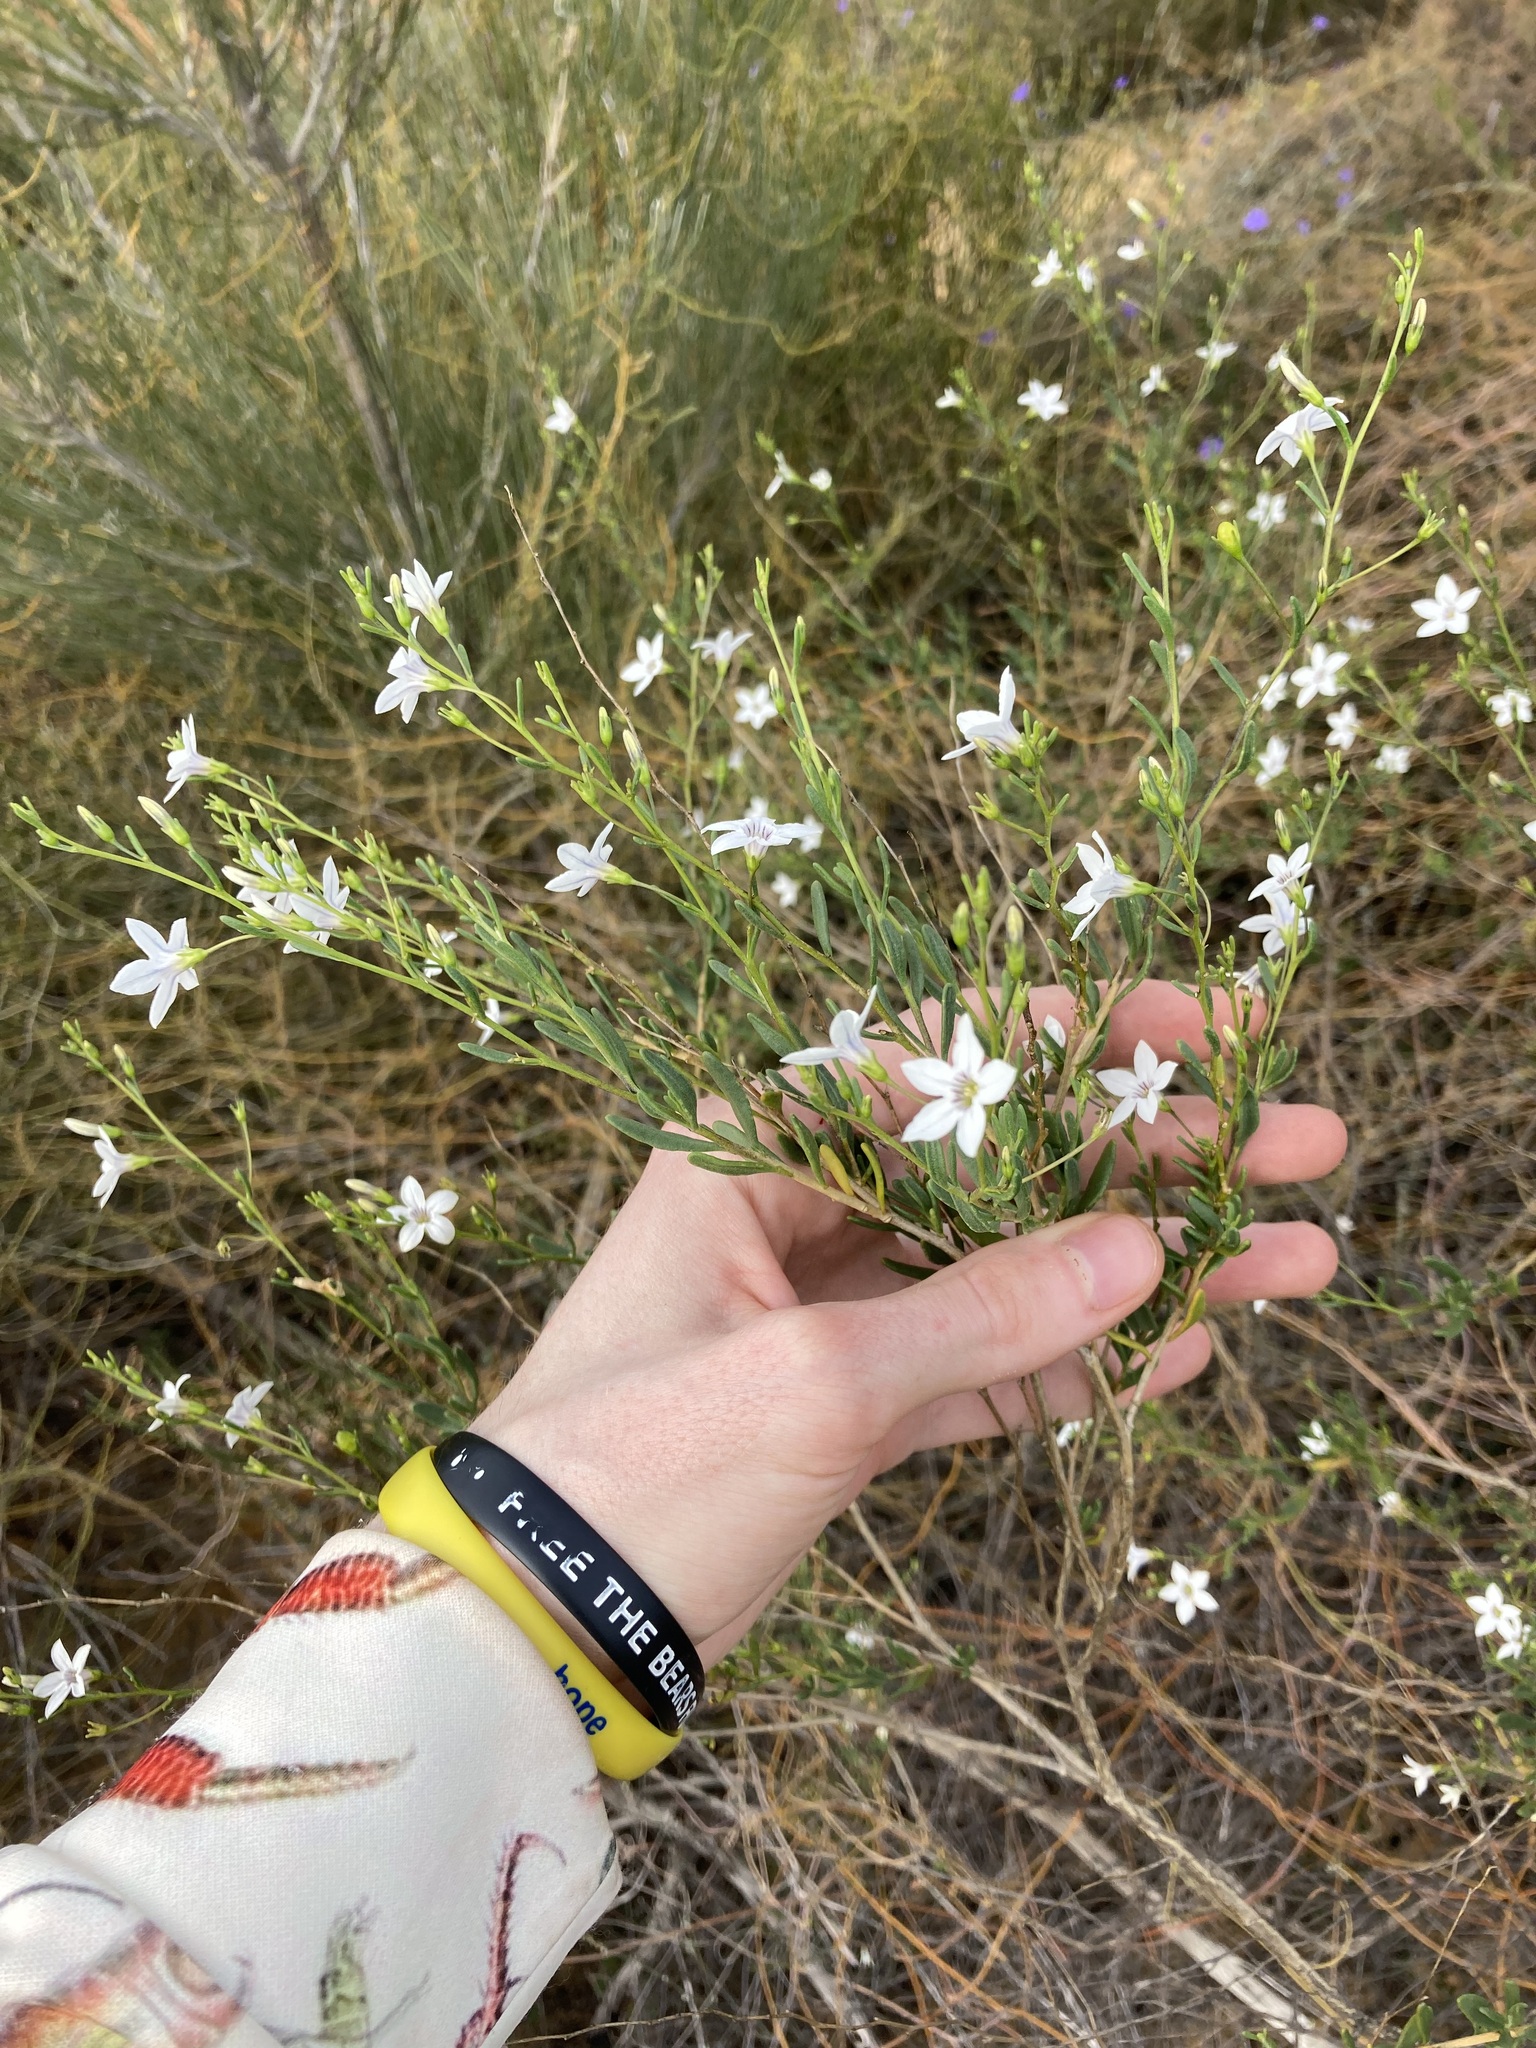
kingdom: Plantae
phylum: Tracheophyta
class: Magnoliopsida
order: Solanales
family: Solanaceae
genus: Cyphanthera
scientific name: Cyphanthera racemosa
